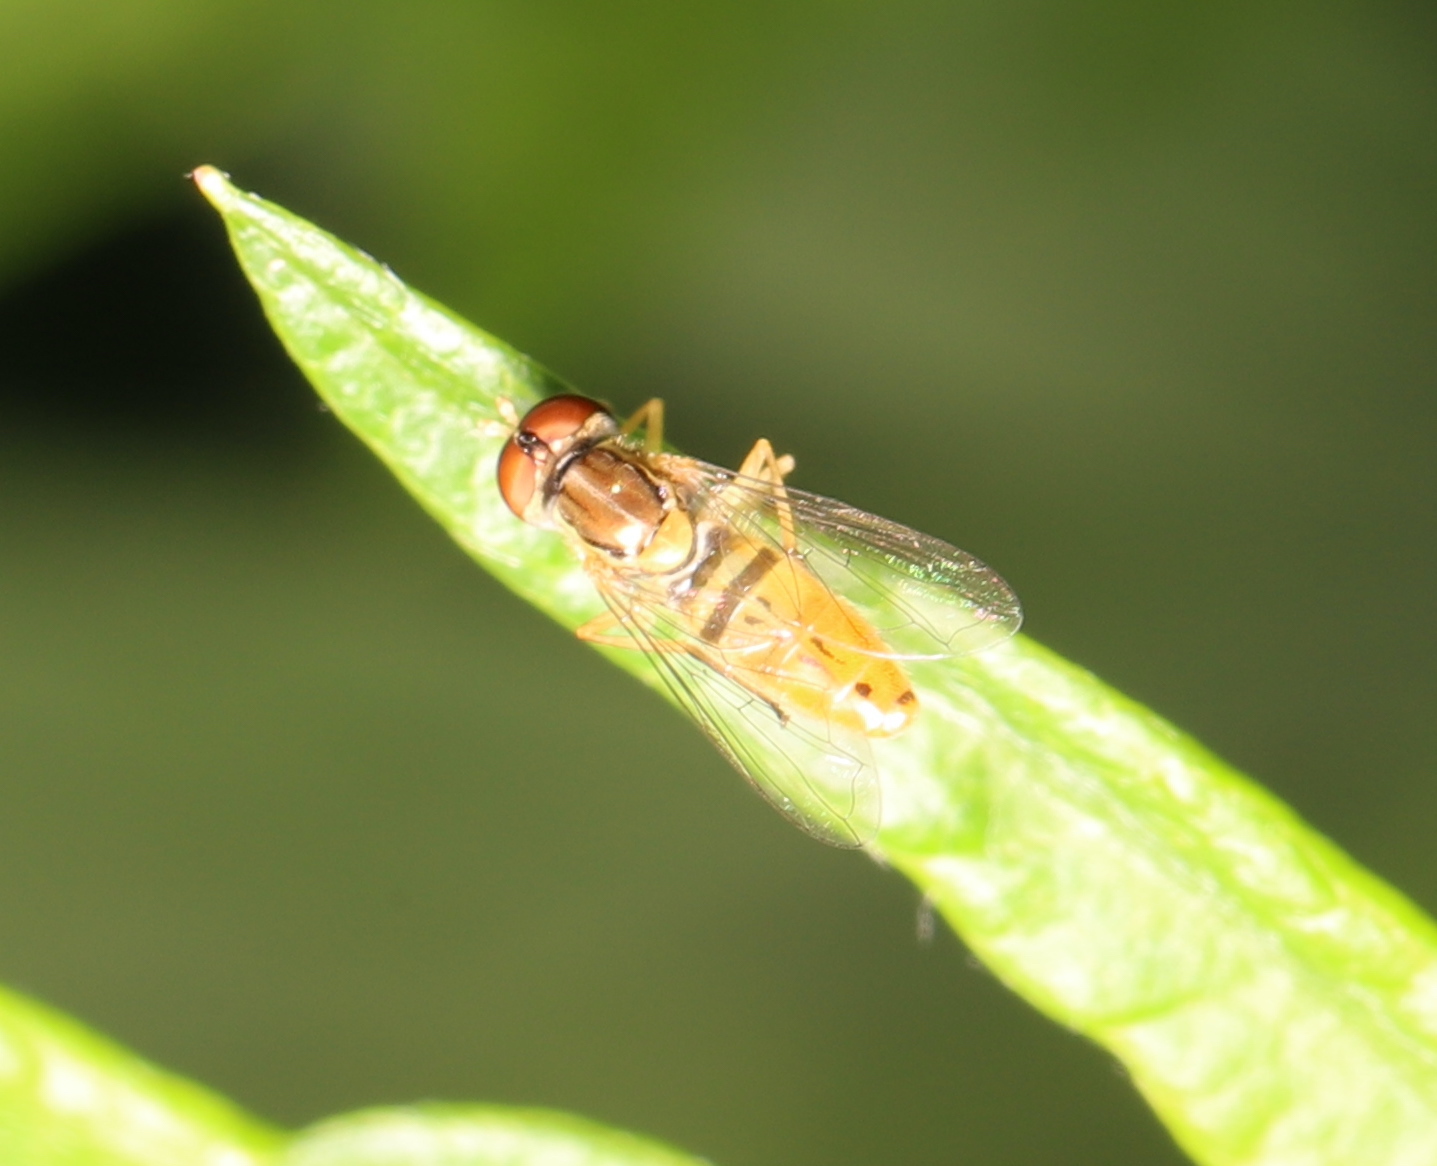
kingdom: Animalia
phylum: Arthropoda
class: Insecta
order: Diptera
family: Syrphidae
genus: Toxomerus
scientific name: Toxomerus marginatus
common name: Syrphid fly
